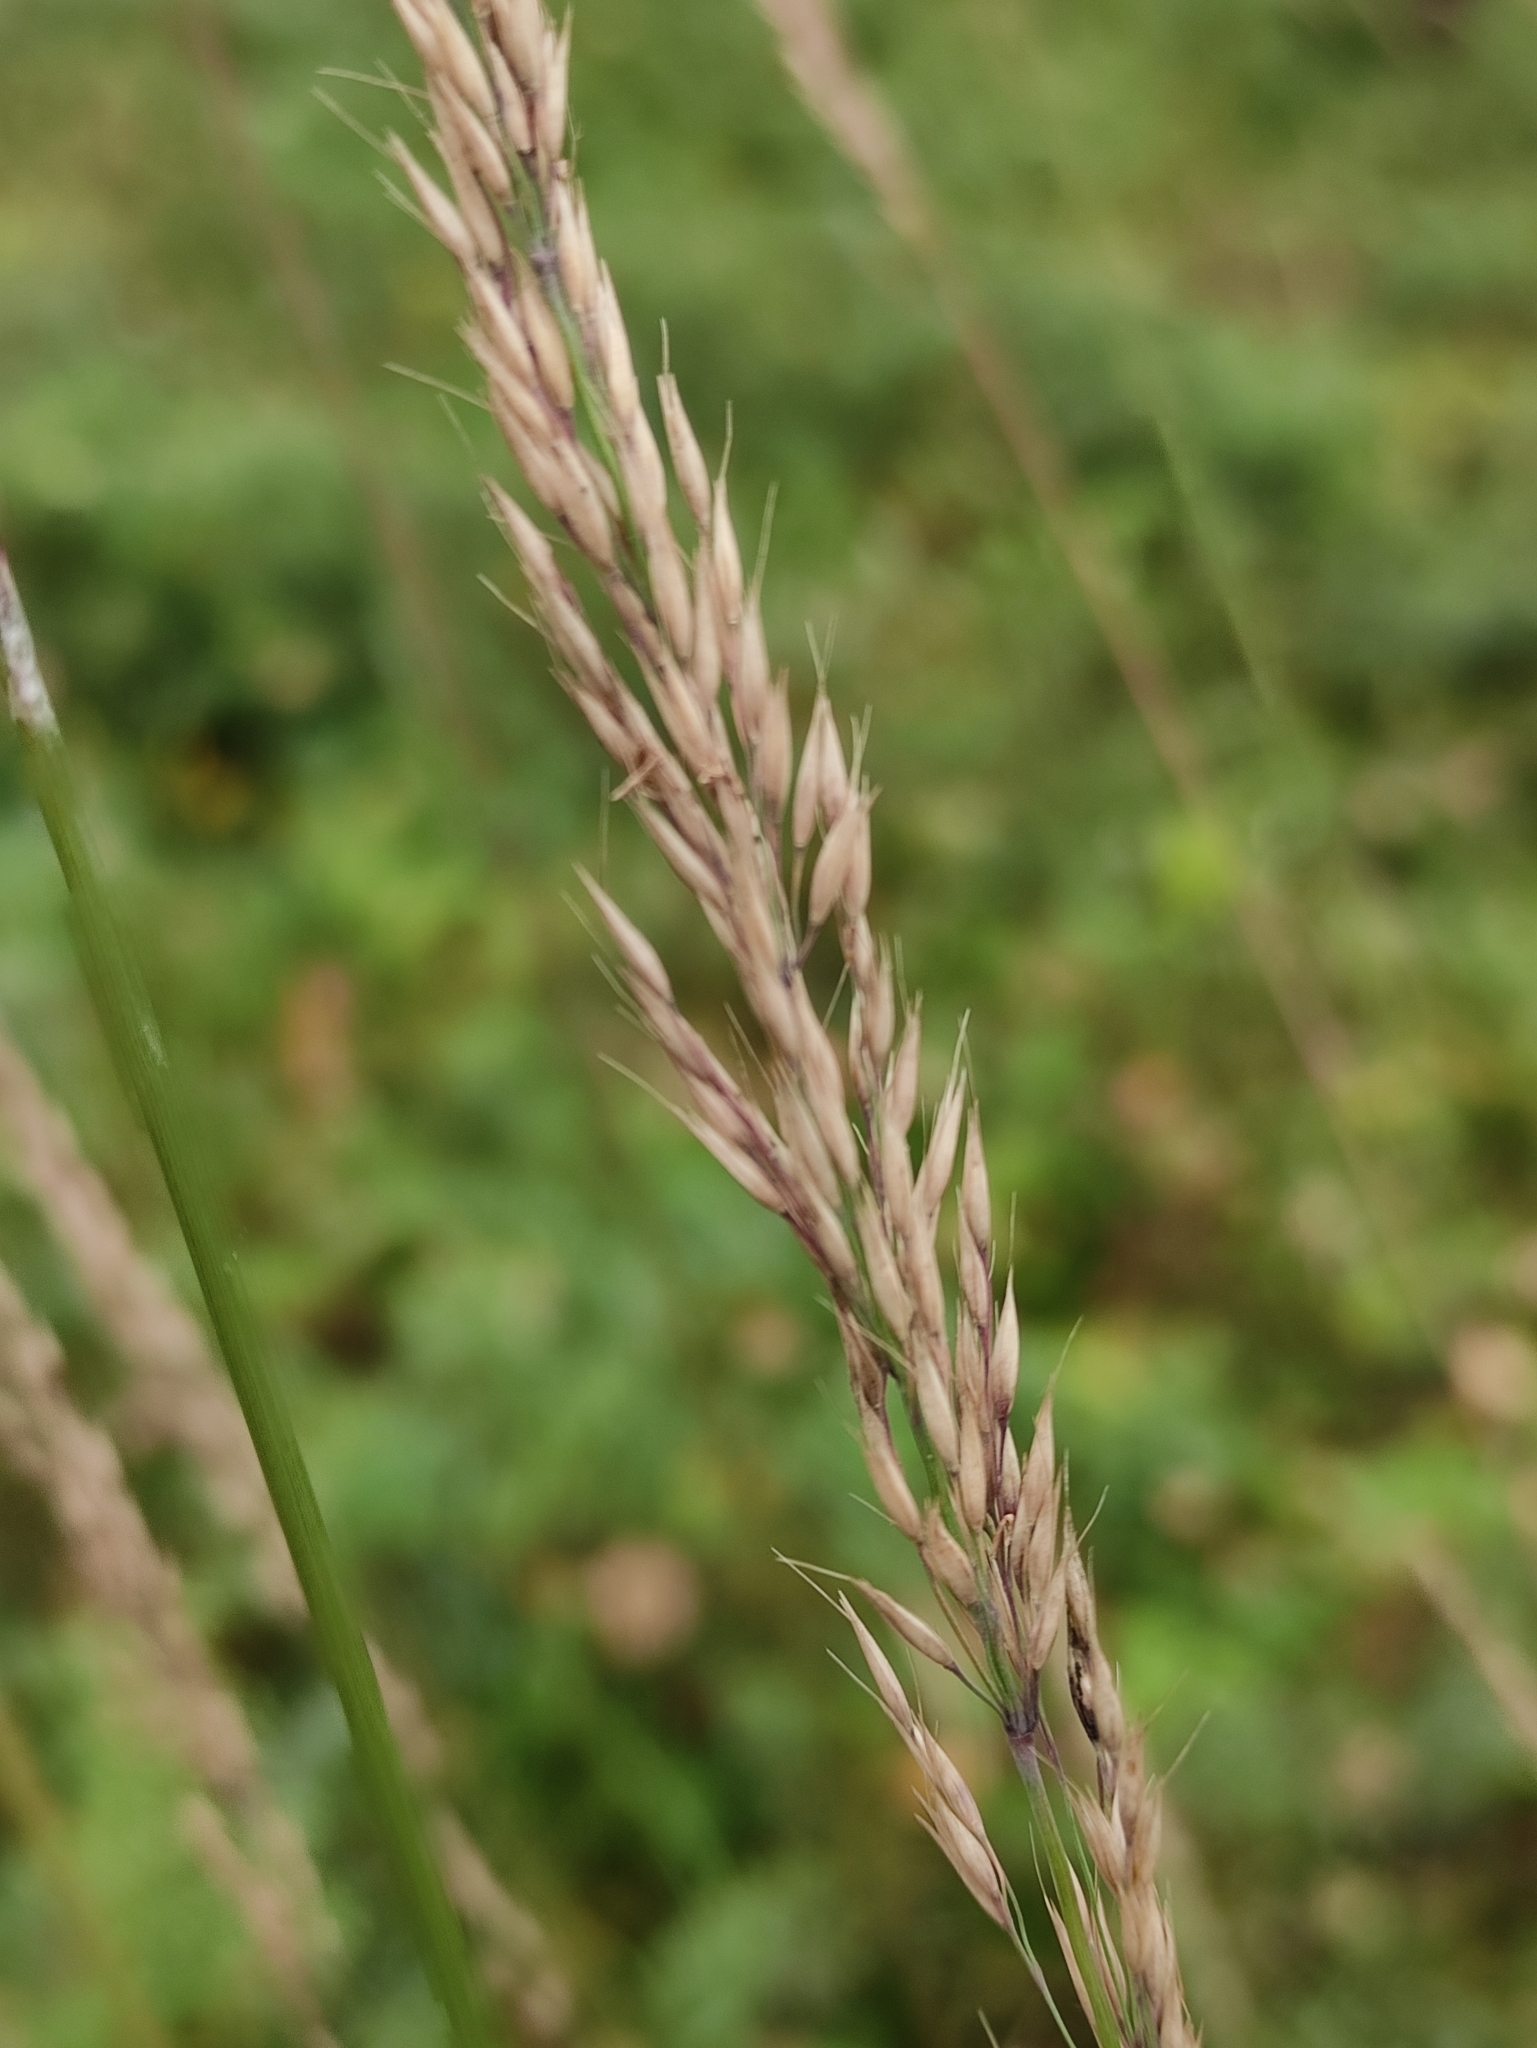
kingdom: Plantae
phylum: Tracheophyta
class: Liliopsida
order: Poales
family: Poaceae
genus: Calamagrostis
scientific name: Calamagrostis arundinacea
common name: Metskastik
